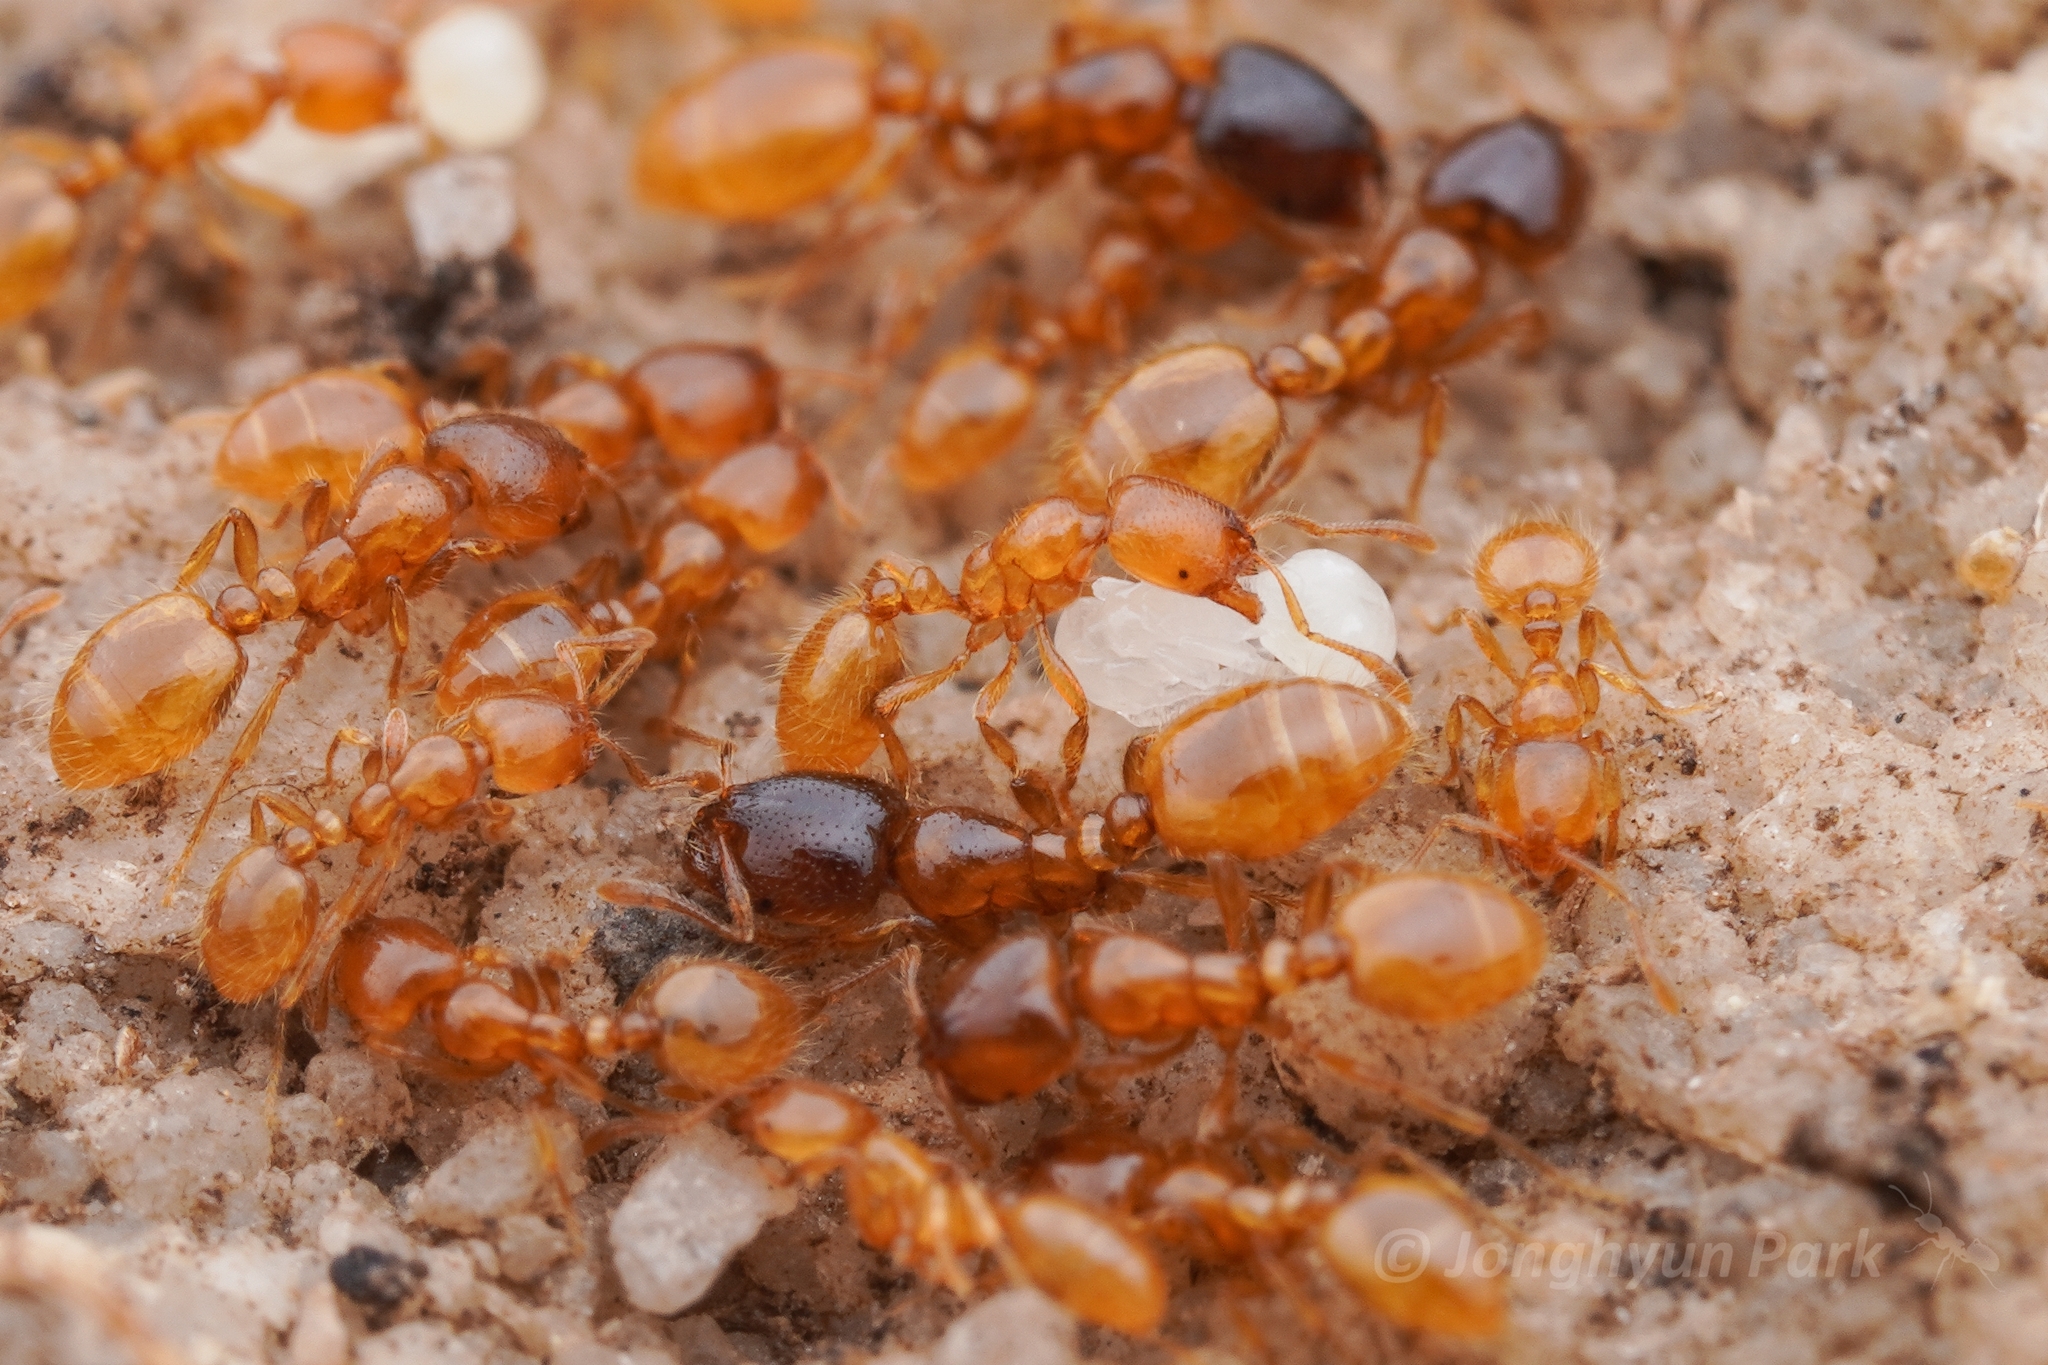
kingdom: Animalia
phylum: Arthropoda
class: Insecta
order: Hymenoptera
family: Formicidae
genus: Solenopsis
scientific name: Solenopsis punctaticeps
